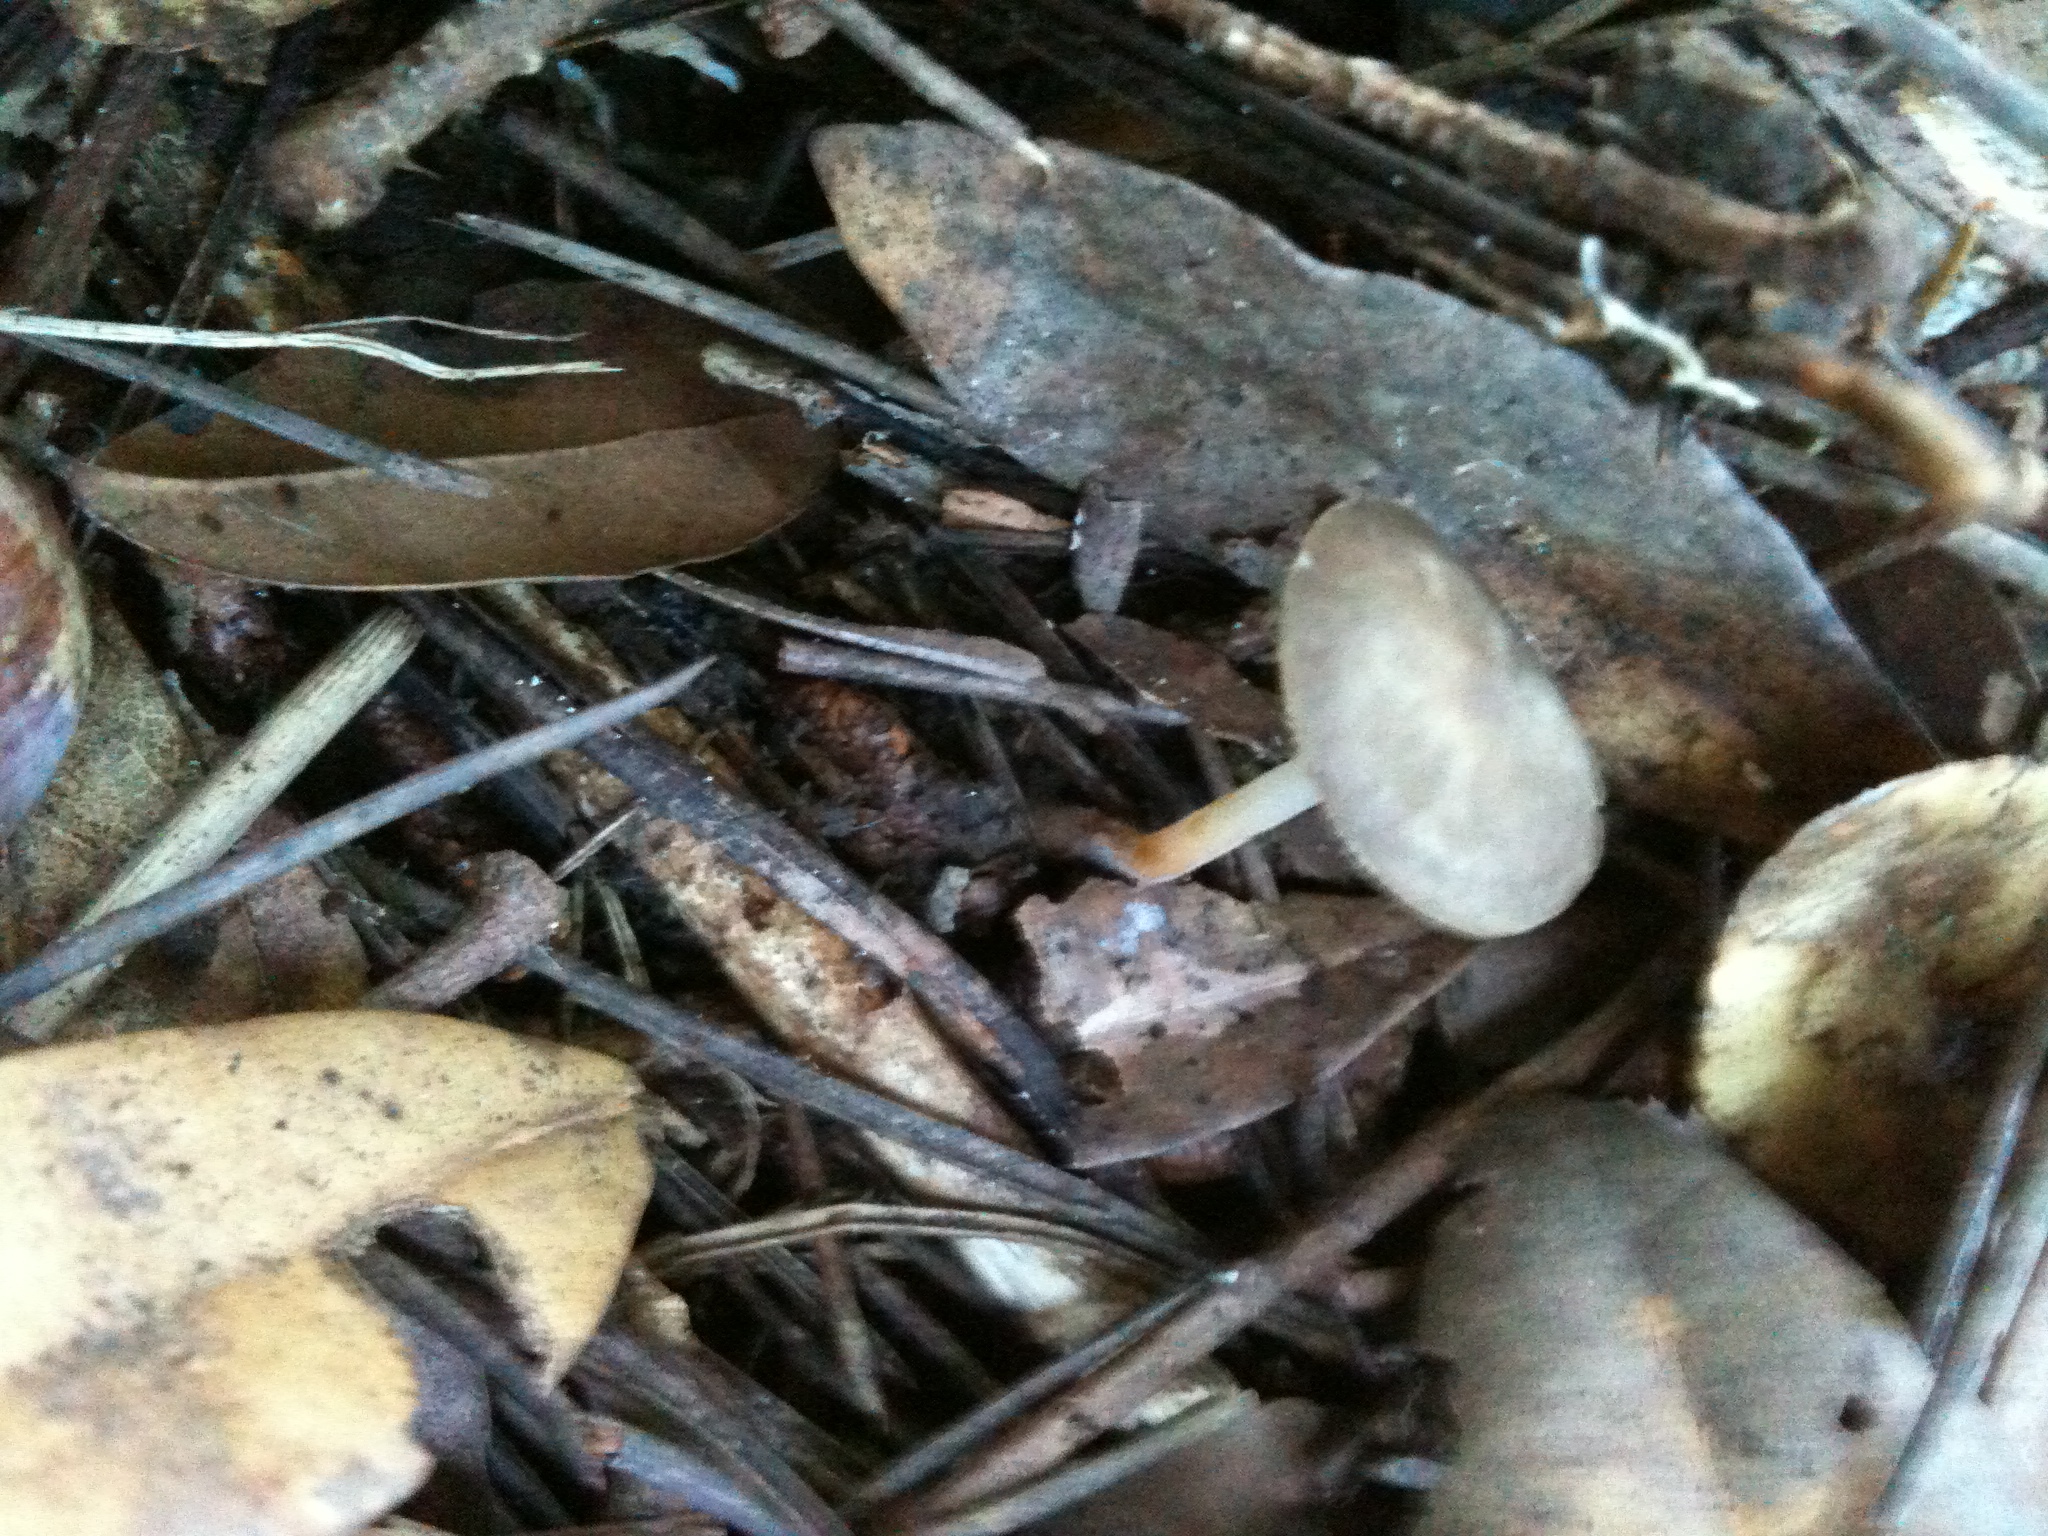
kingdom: Fungi
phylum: Basidiomycota
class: Agaricomycetes
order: Agaricales
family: Physalacriaceae
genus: Strobilurus
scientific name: Strobilurus stephanocystis
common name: Russian conecap
